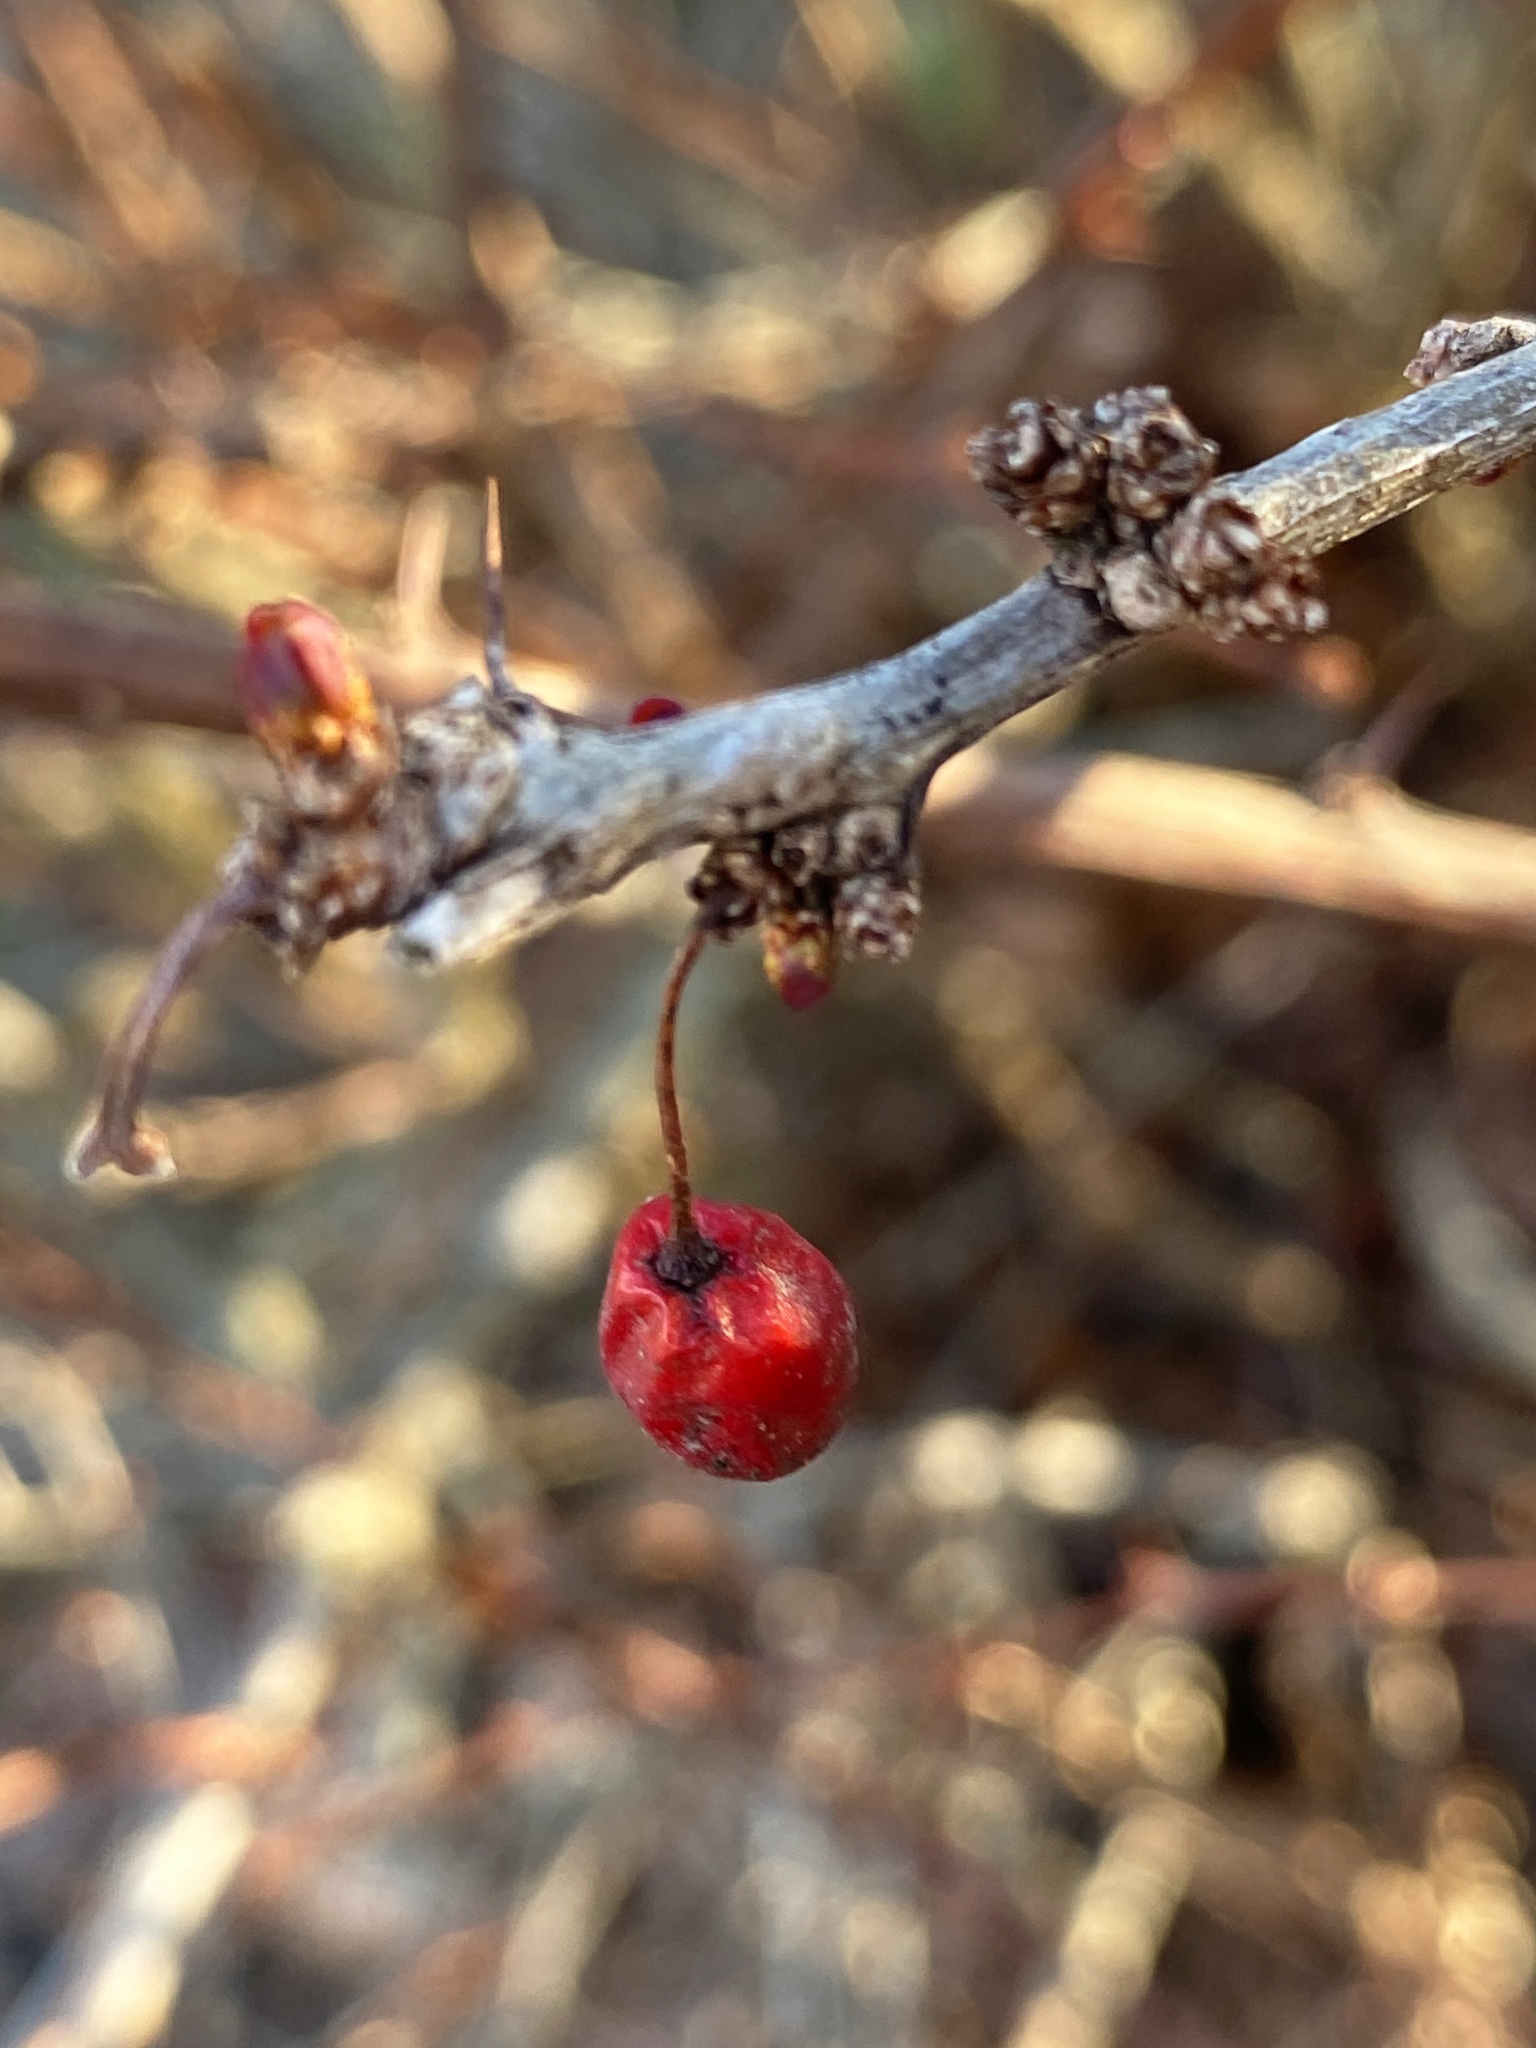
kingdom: Plantae
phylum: Tracheophyta
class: Magnoliopsida
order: Ranunculales
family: Berberidaceae
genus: Berberis
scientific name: Berberis thunbergii
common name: Japanese barberry
